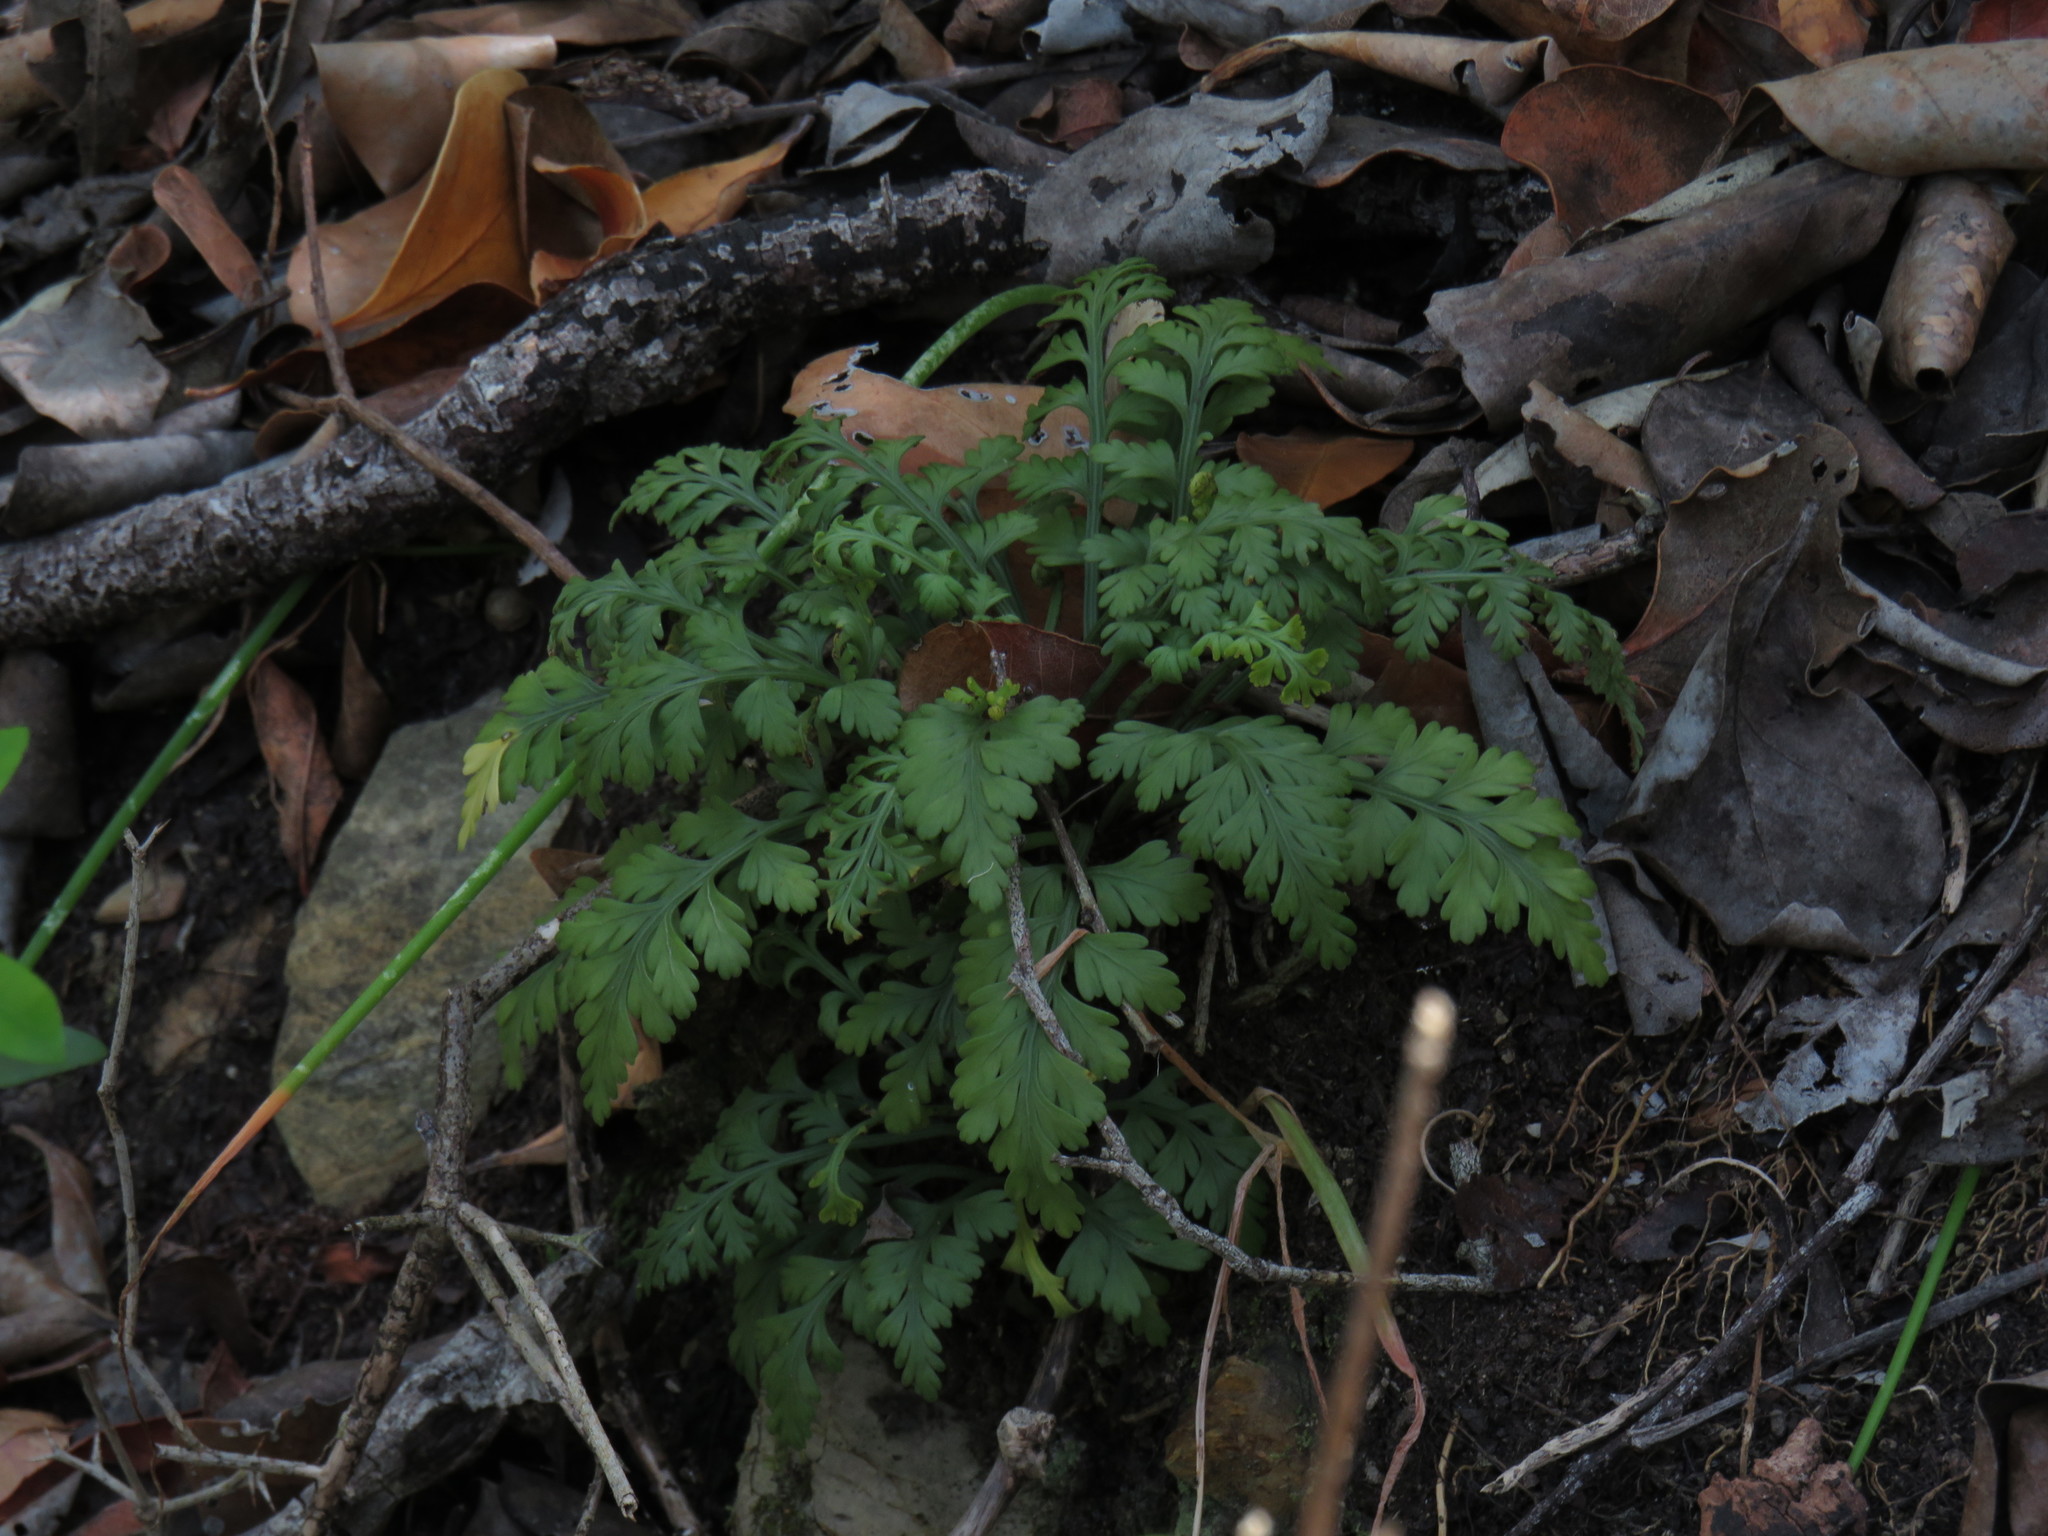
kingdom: Plantae
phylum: Tracheophyta
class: Polypodiopsida
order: Polypodiales
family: Aspleniaceae
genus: Asplenium
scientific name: Asplenium rutifolium
